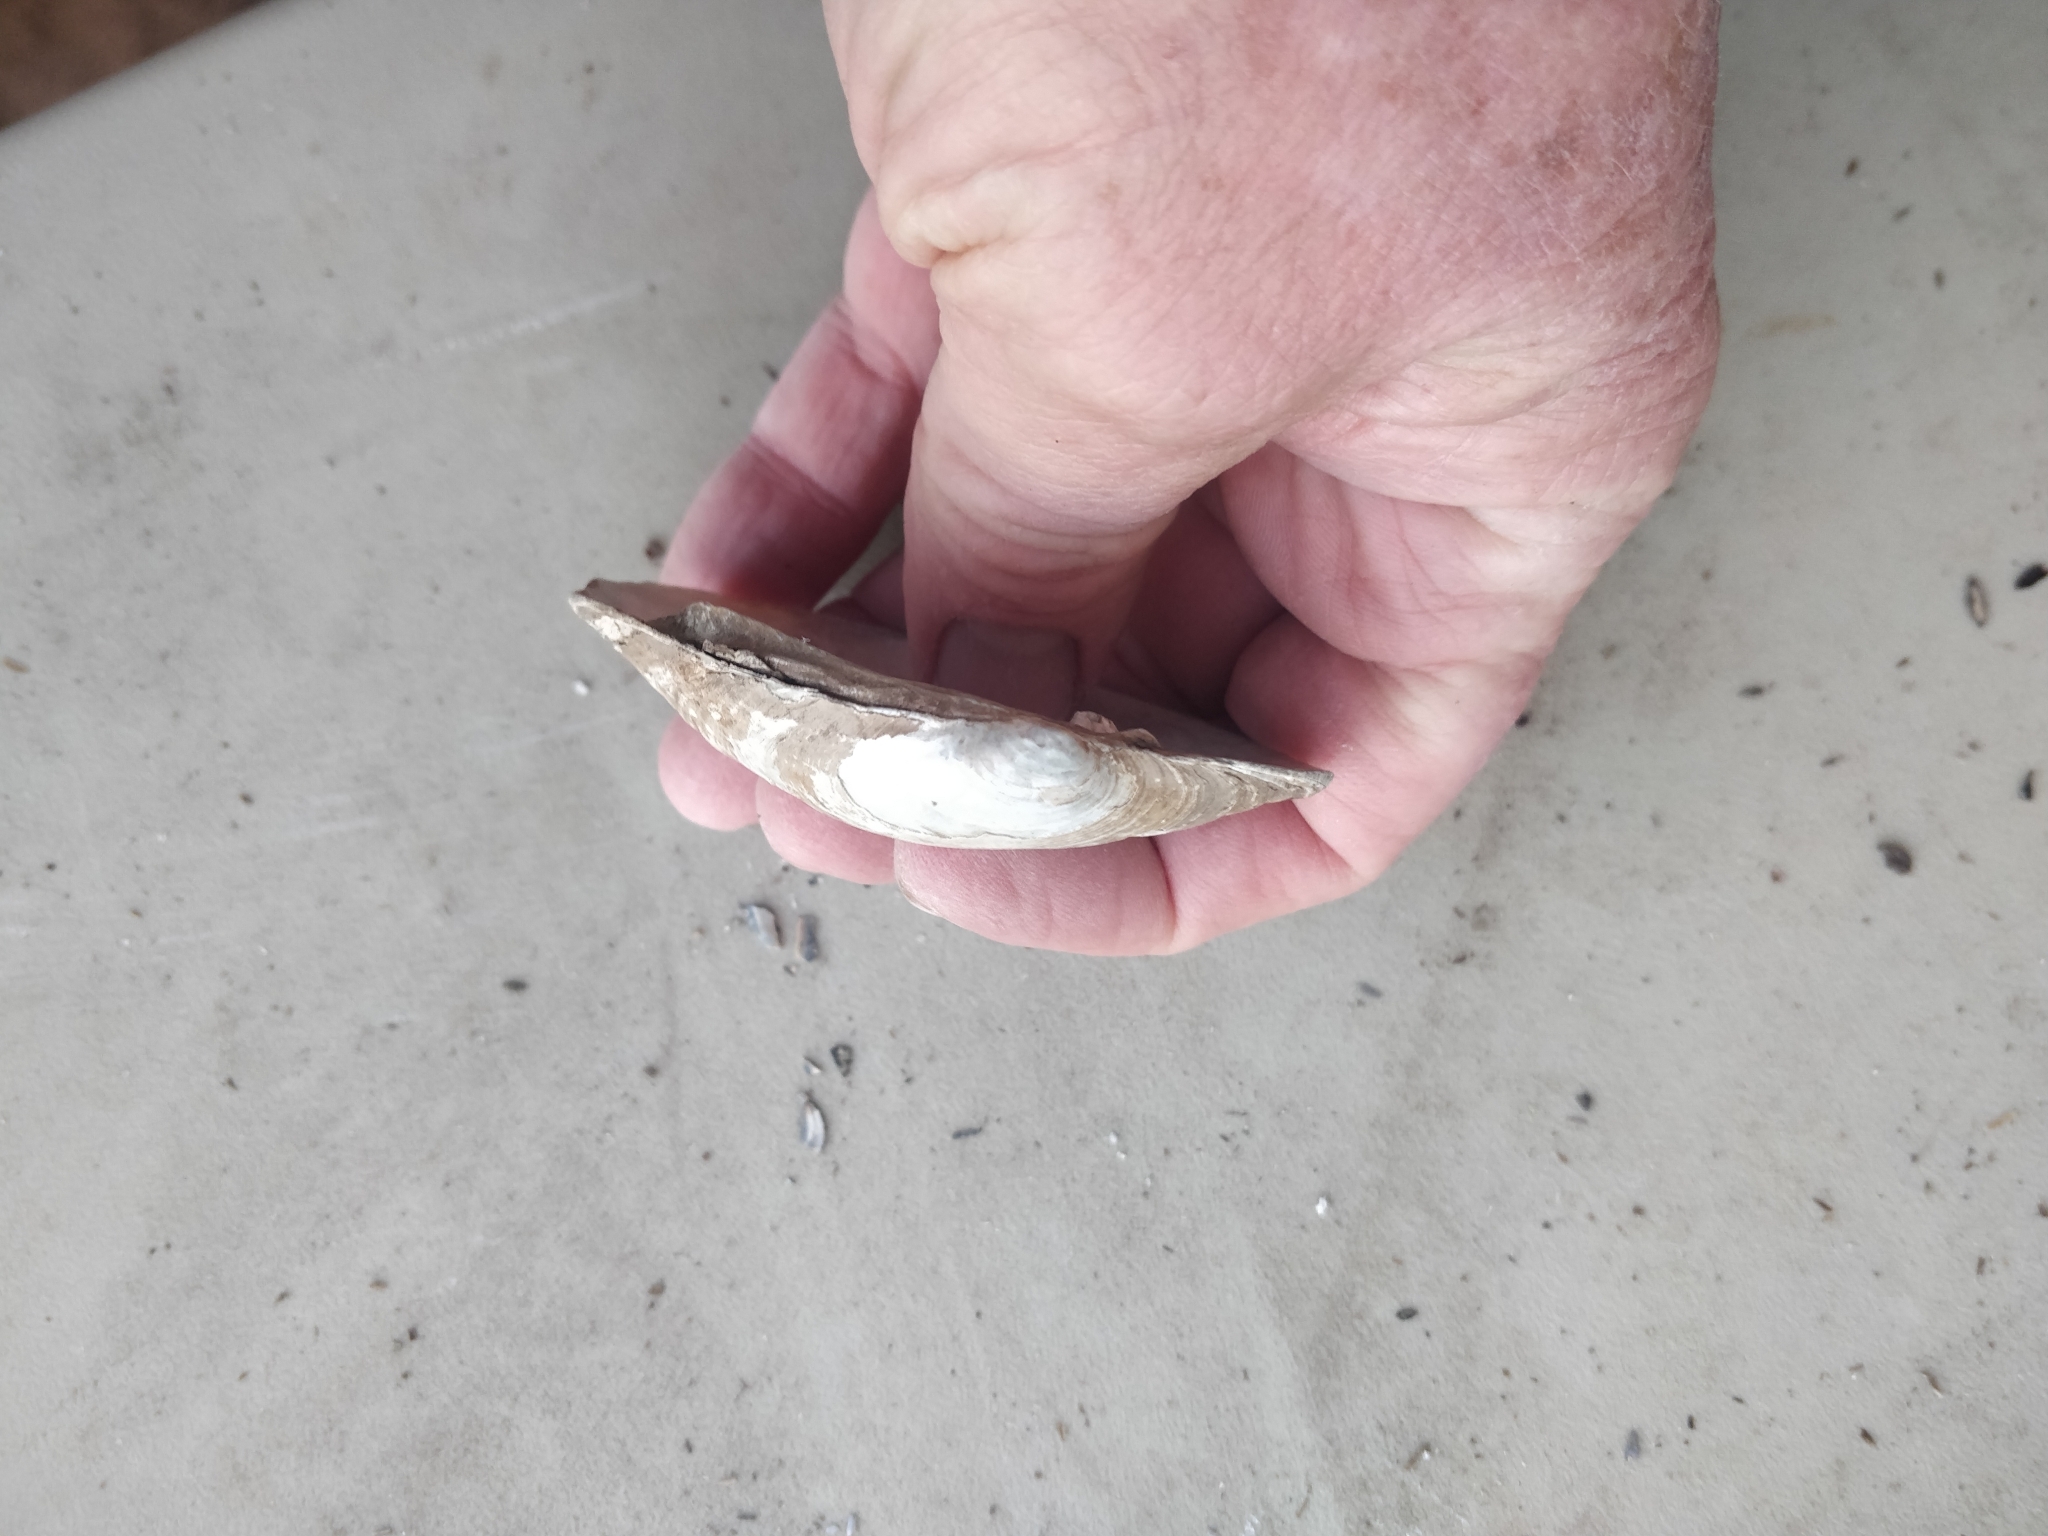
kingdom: Animalia
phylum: Mollusca
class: Bivalvia
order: Unionida
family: Unionidae
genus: Lampsilis
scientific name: Lampsilis cardium
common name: Plain pocketbook
